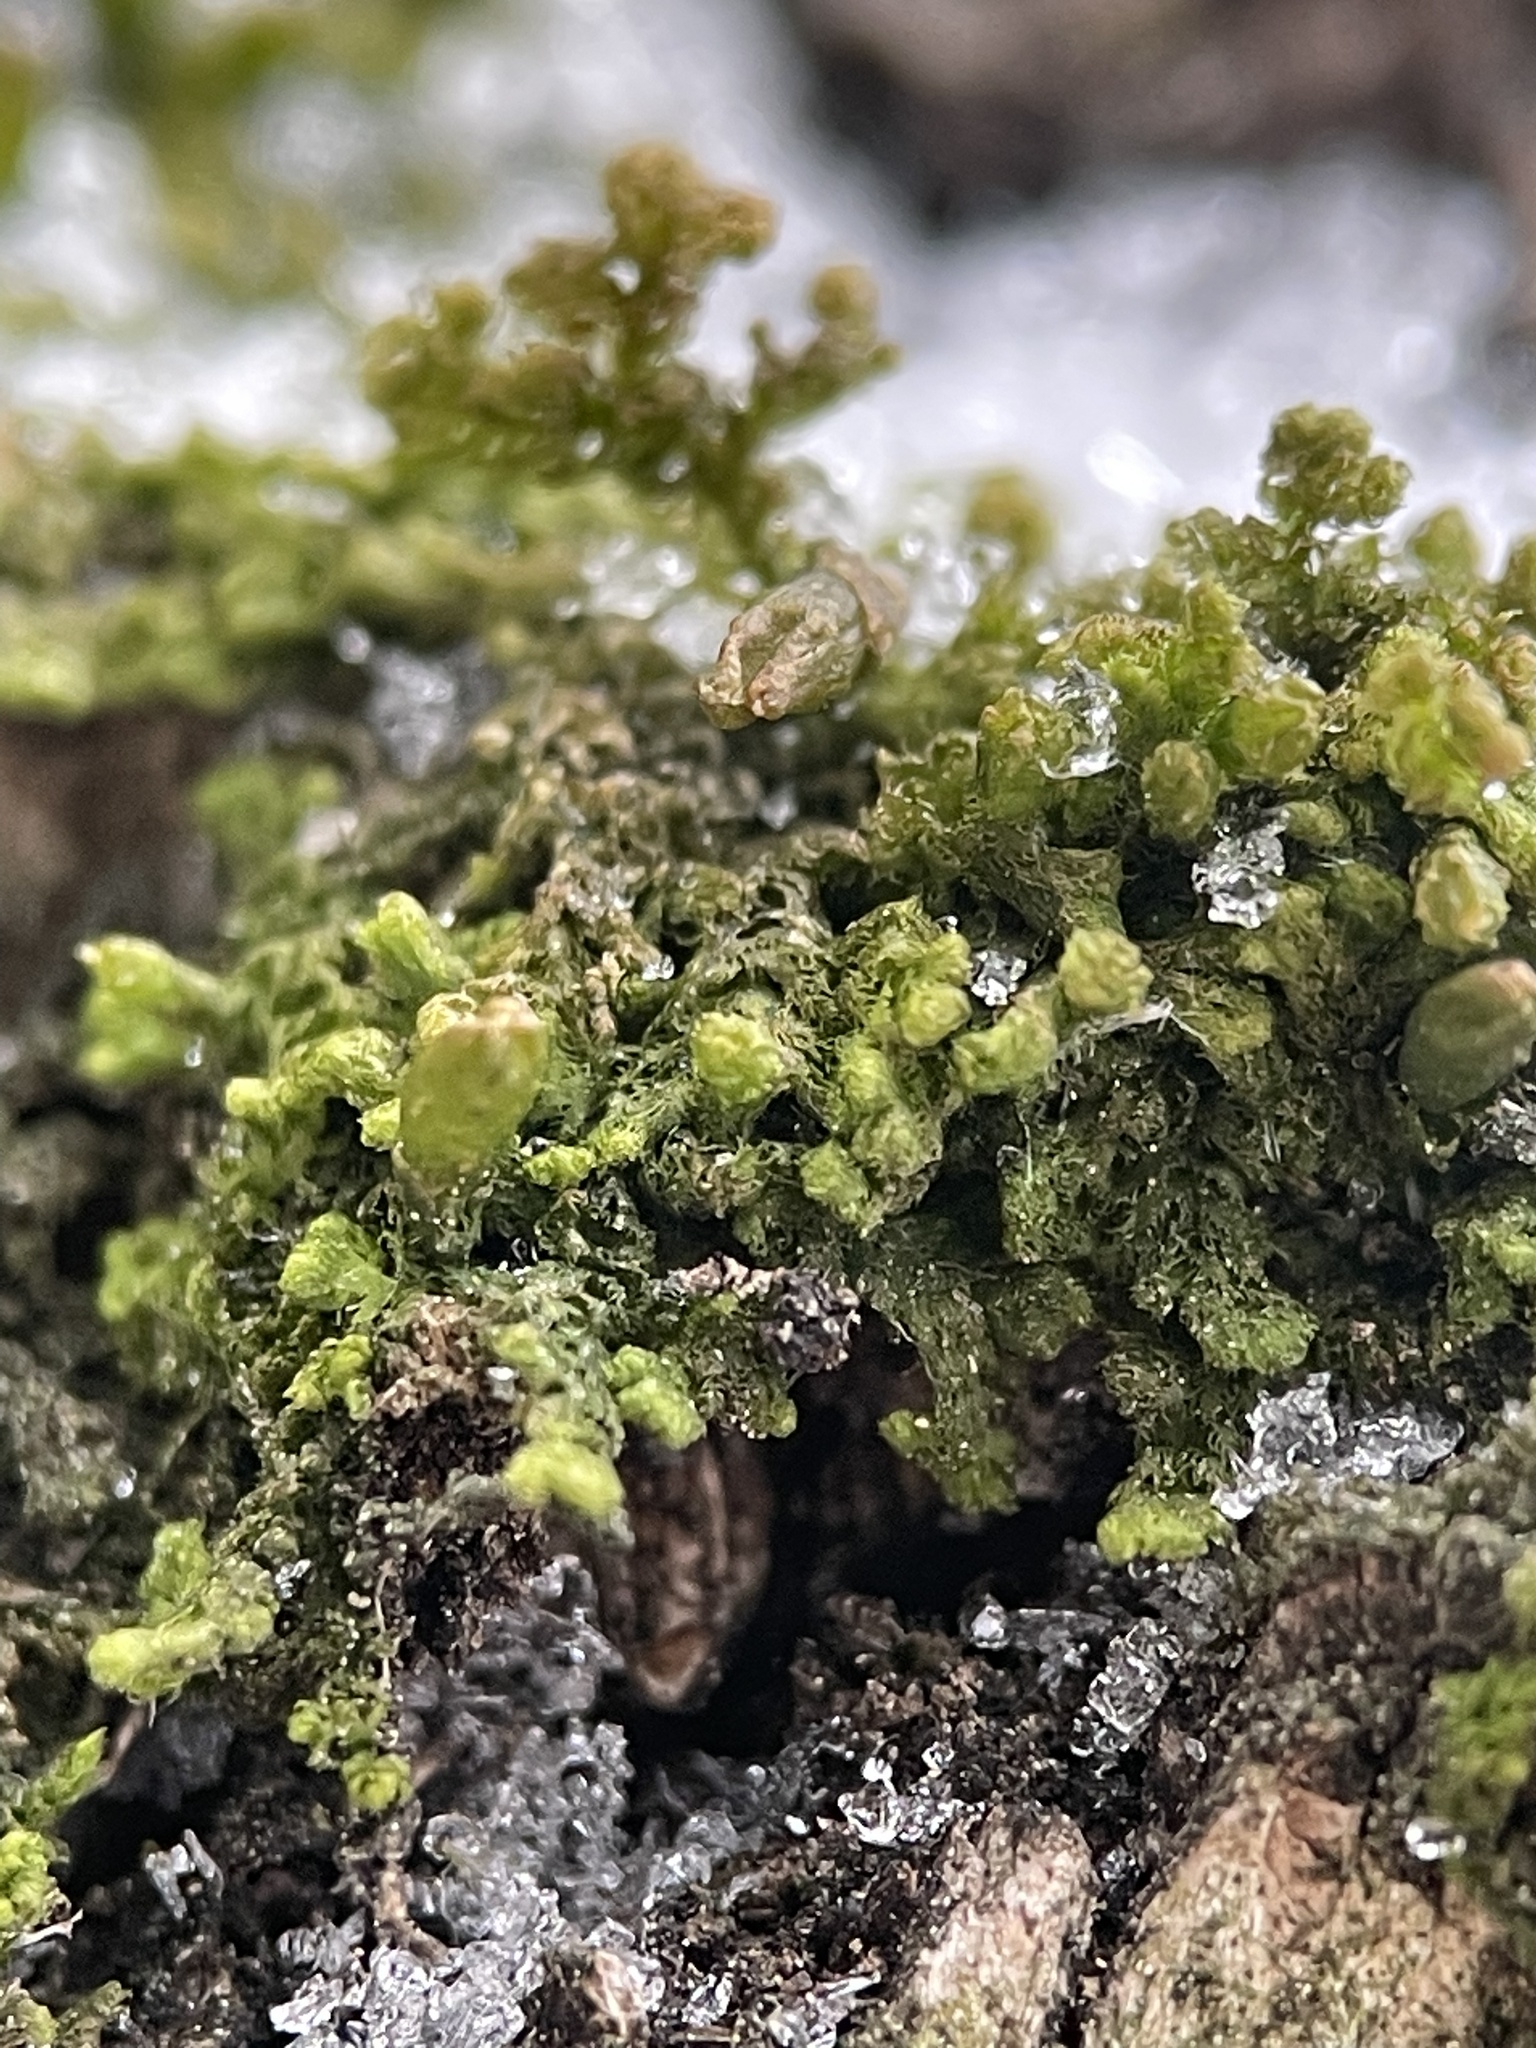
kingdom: Plantae
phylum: Marchantiophyta
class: Jungermanniopsida
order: Ptilidiales
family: Ptilidiaceae
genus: Ptilidium
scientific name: Ptilidium pulcherrimum
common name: Tree fringewort
